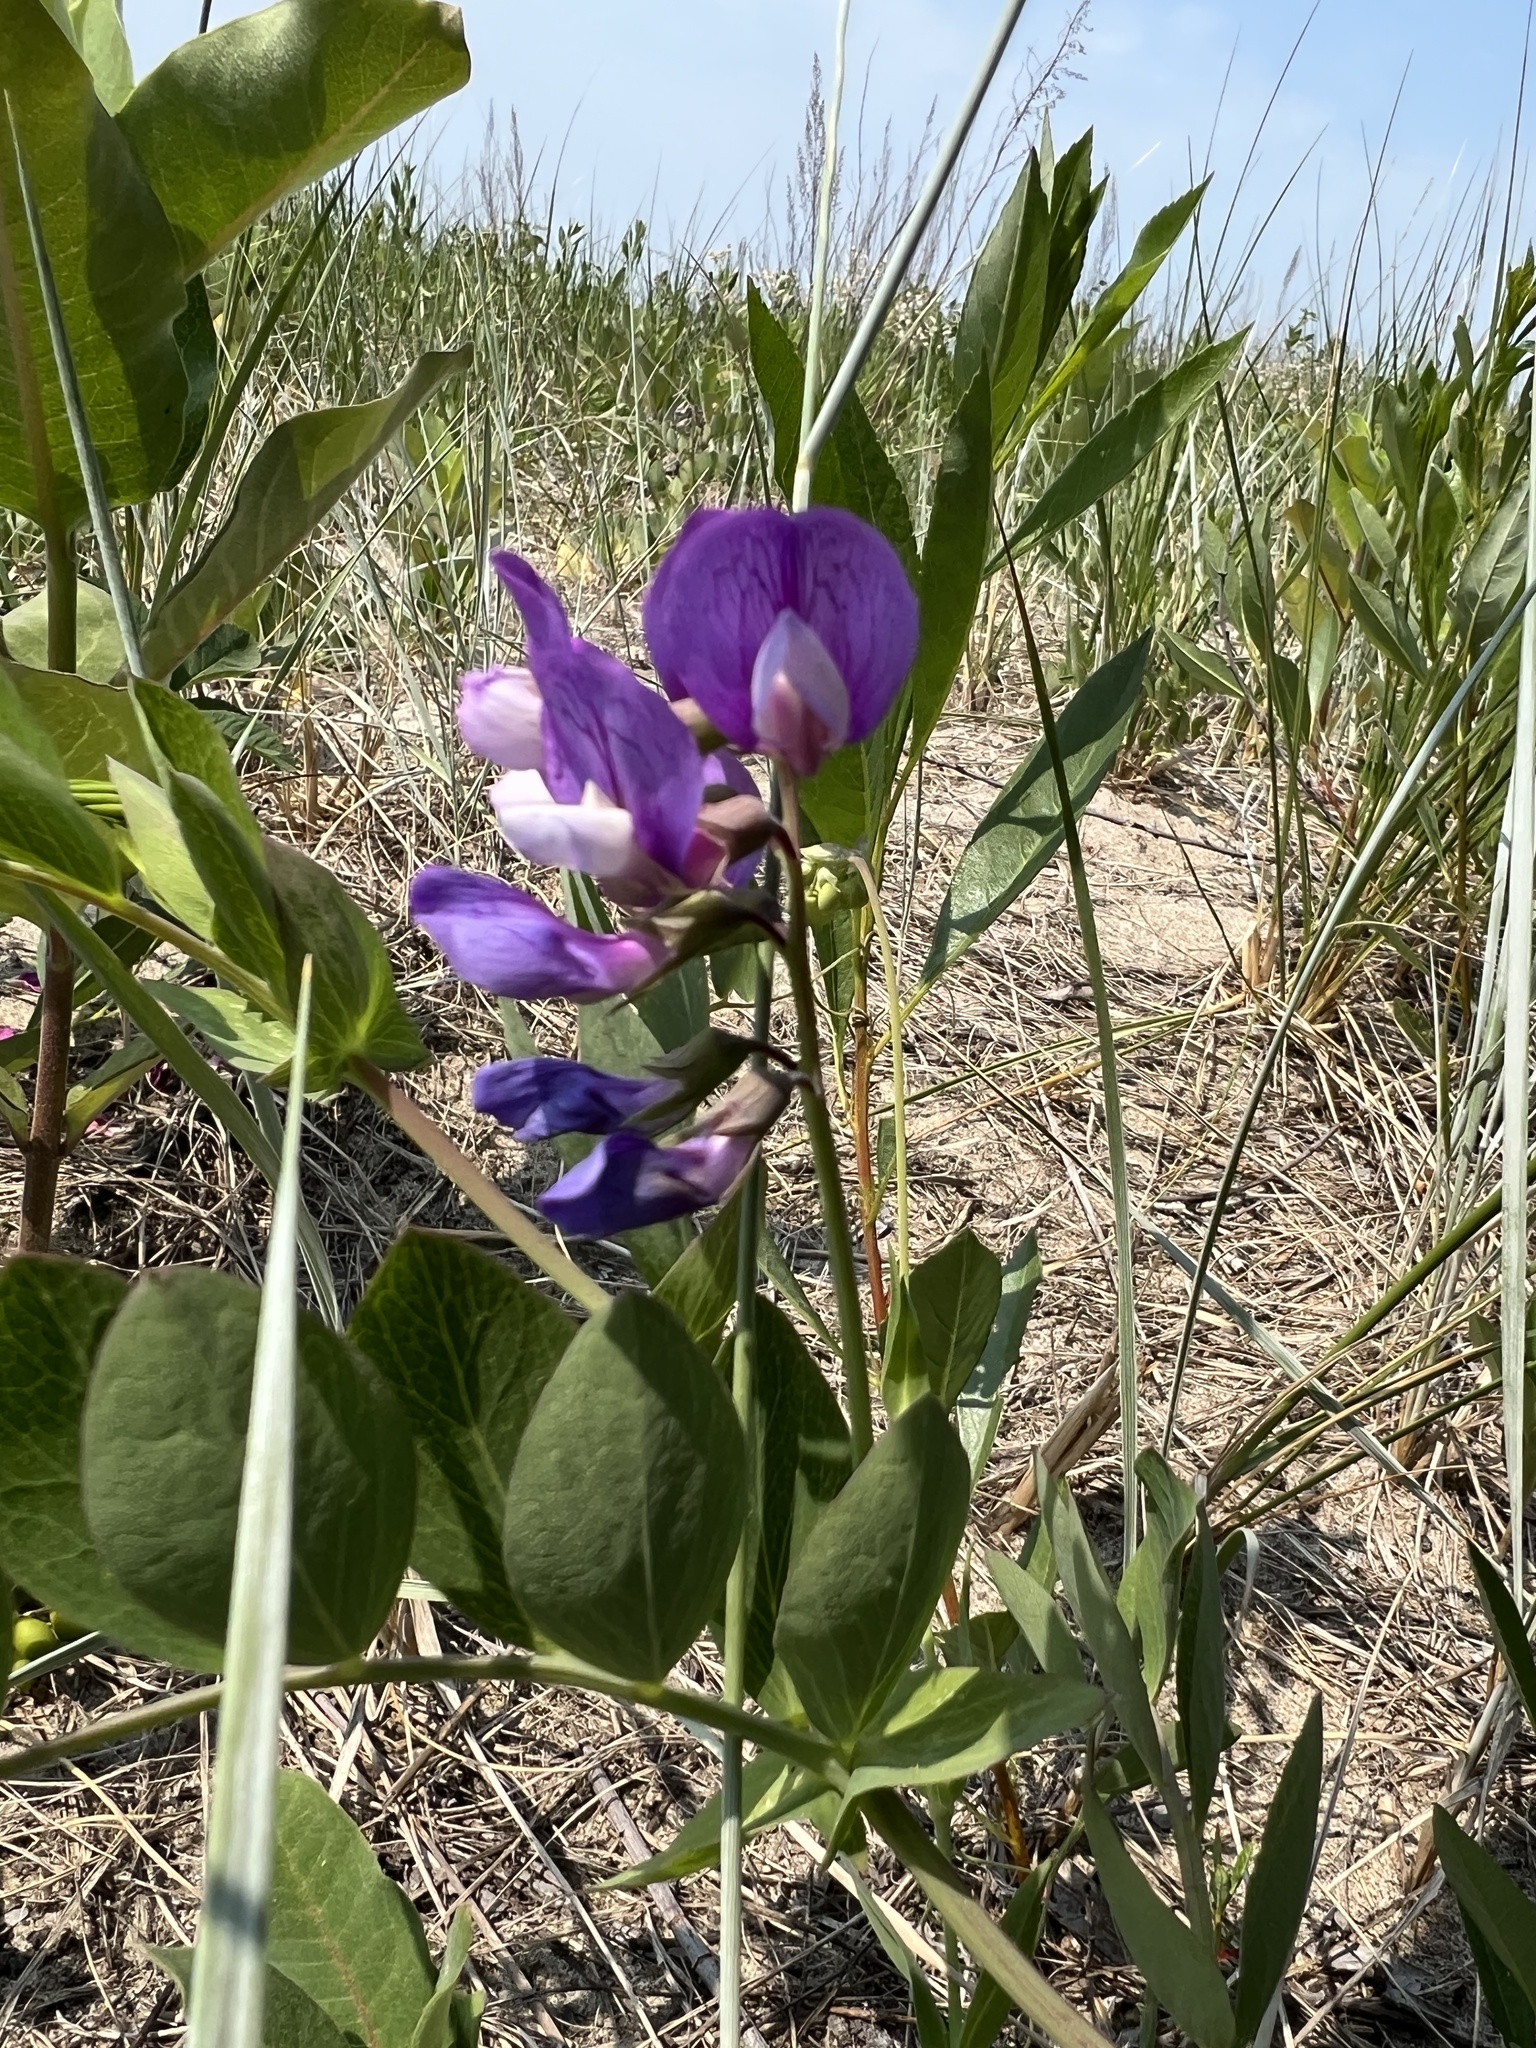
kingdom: Plantae
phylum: Tracheophyta
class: Magnoliopsida
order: Fabales
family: Fabaceae
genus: Lathyrus
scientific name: Lathyrus japonicus
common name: Sea pea
